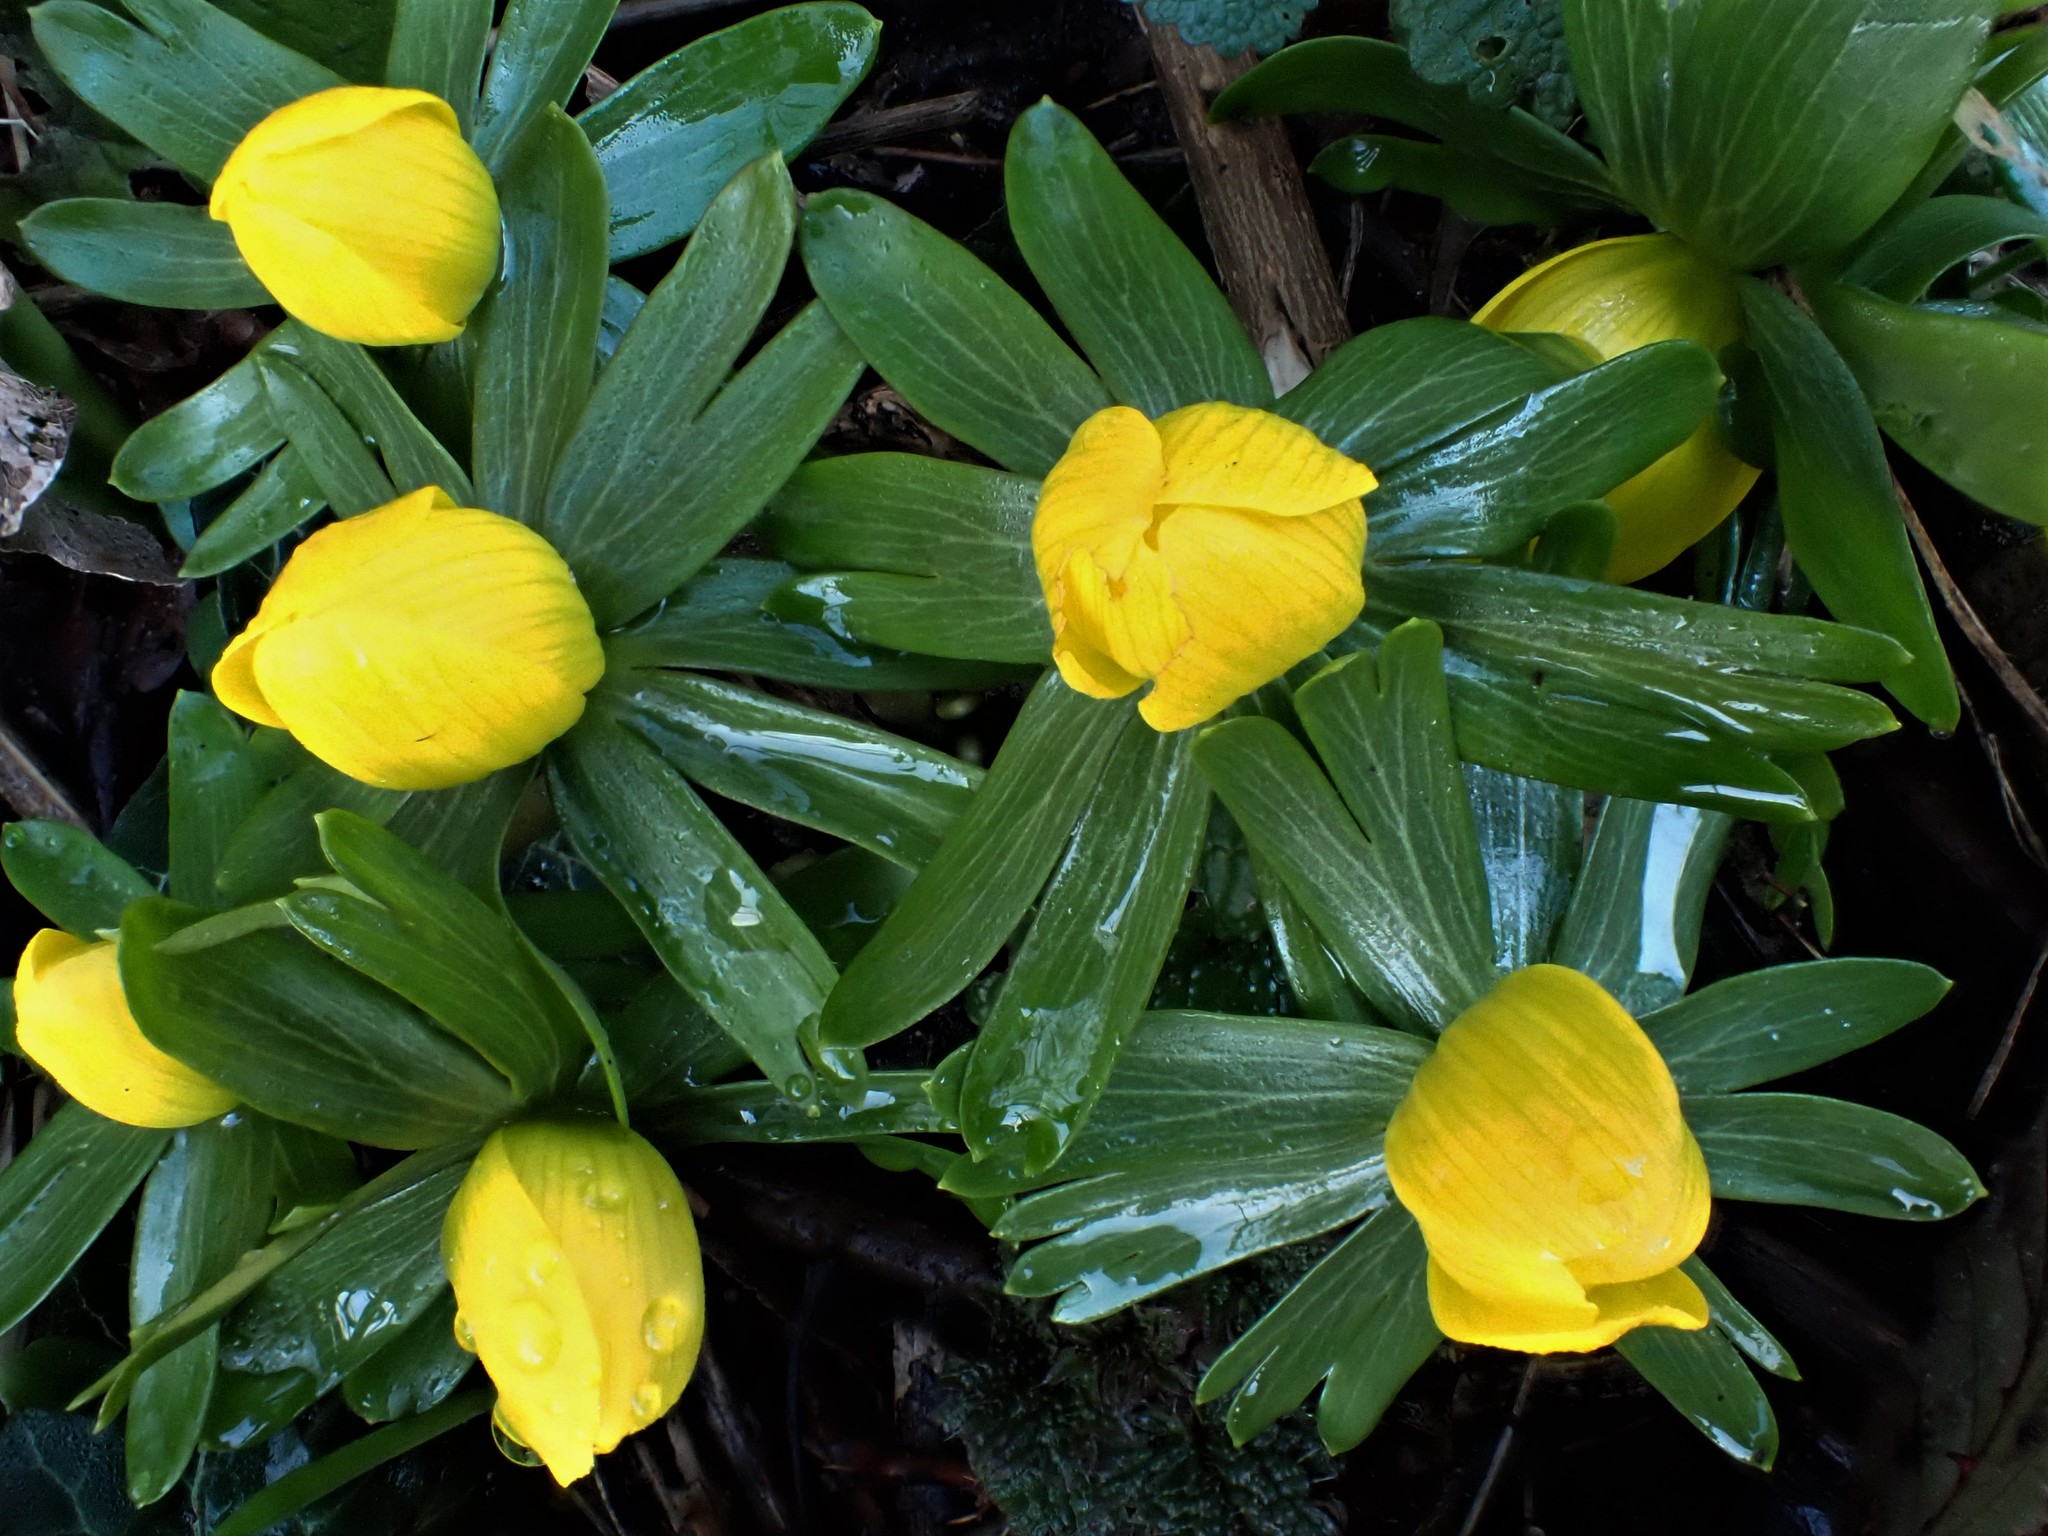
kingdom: Plantae
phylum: Tracheophyta
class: Magnoliopsida
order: Ranunculales
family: Ranunculaceae
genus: Eranthis
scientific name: Eranthis hyemalis
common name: Winter aconite
